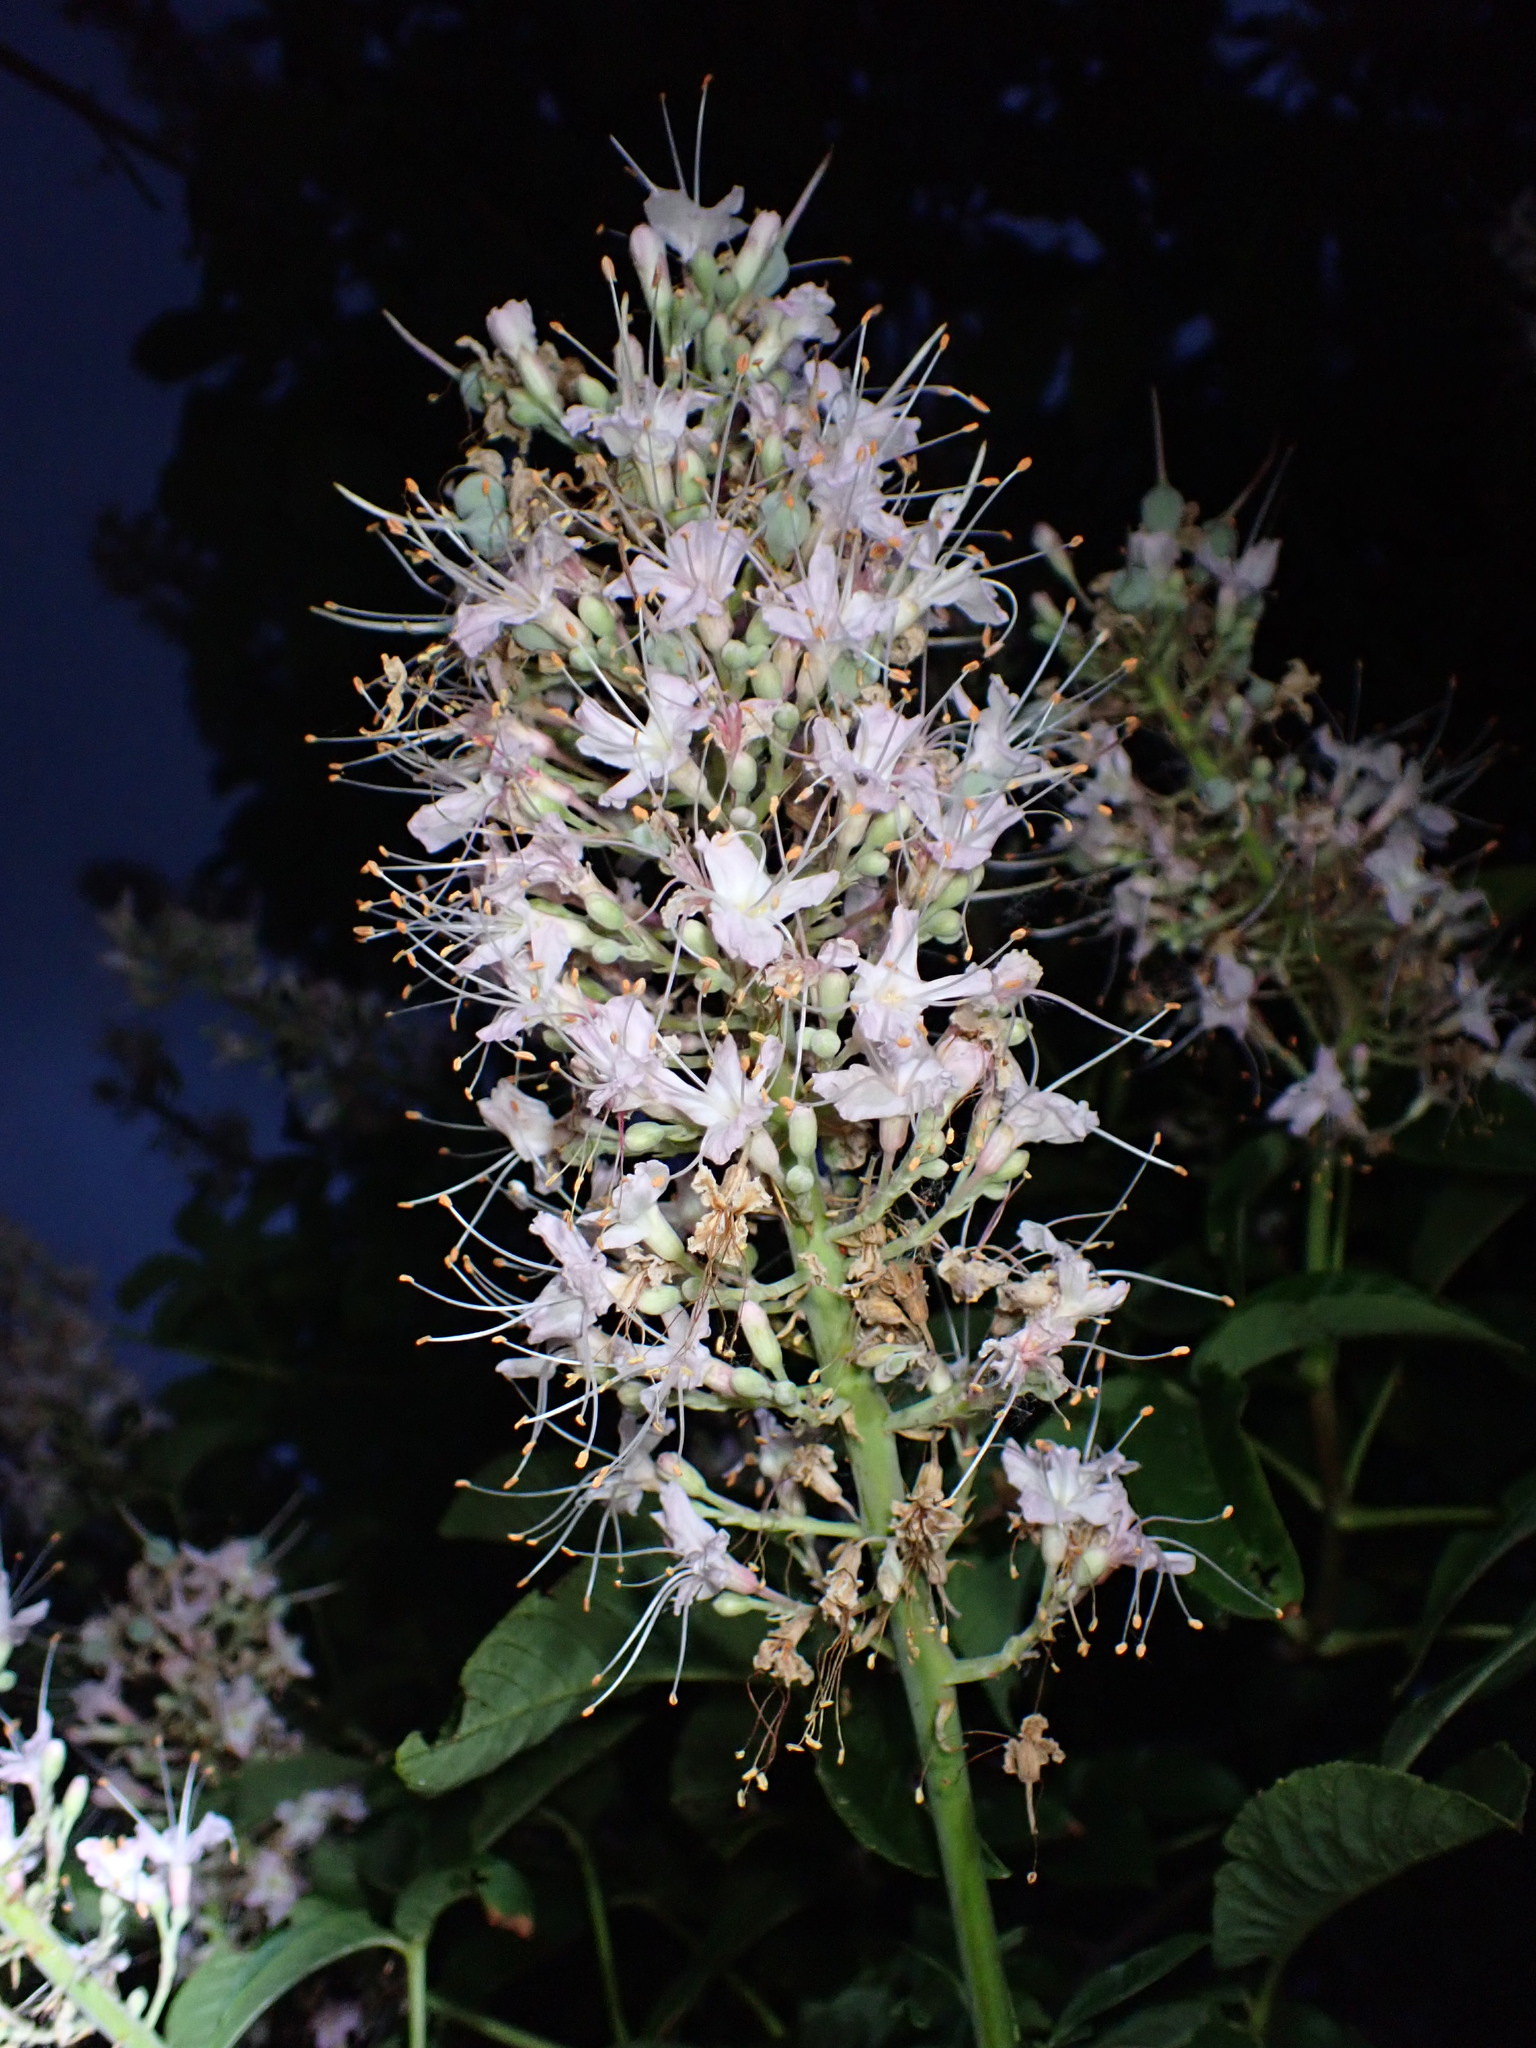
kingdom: Plantae
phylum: Tracheophyta
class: Magnoliopsida
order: Sapindales
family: Sapindaceae
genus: Aesculus
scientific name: Aesculus californica
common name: California buckeye
